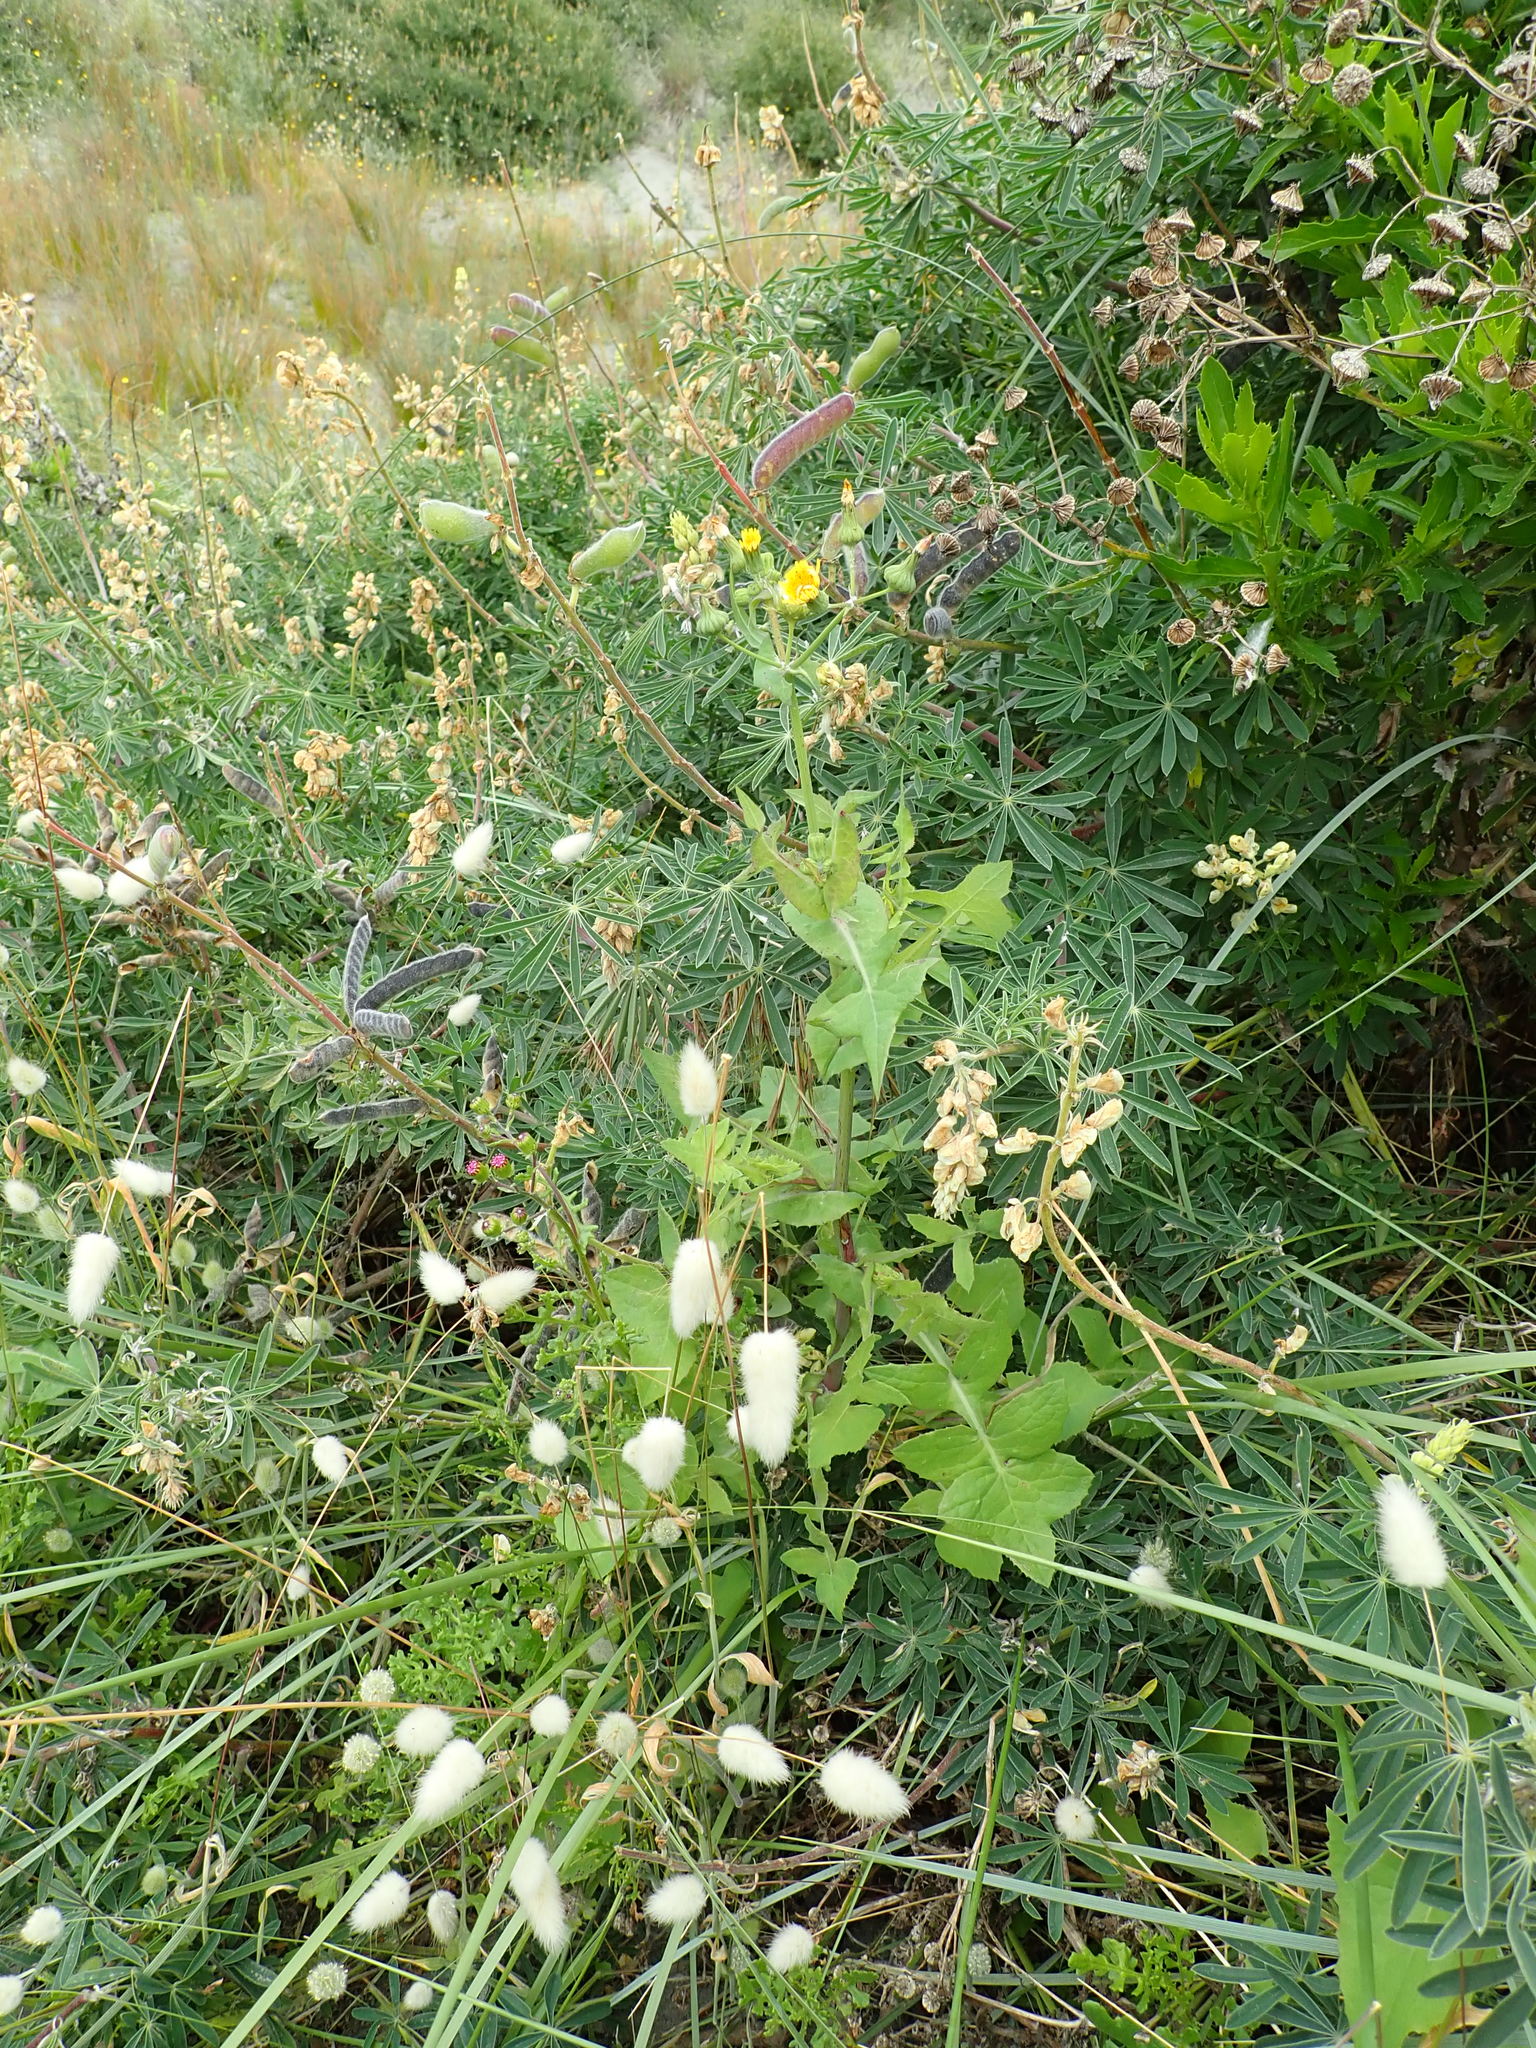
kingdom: Plantae
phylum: Tracheophyta
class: Magnoliopsida
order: Asterales
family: Asteraceae
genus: Sonchus
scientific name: Sonchus oleraceus
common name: Common sowthistle
